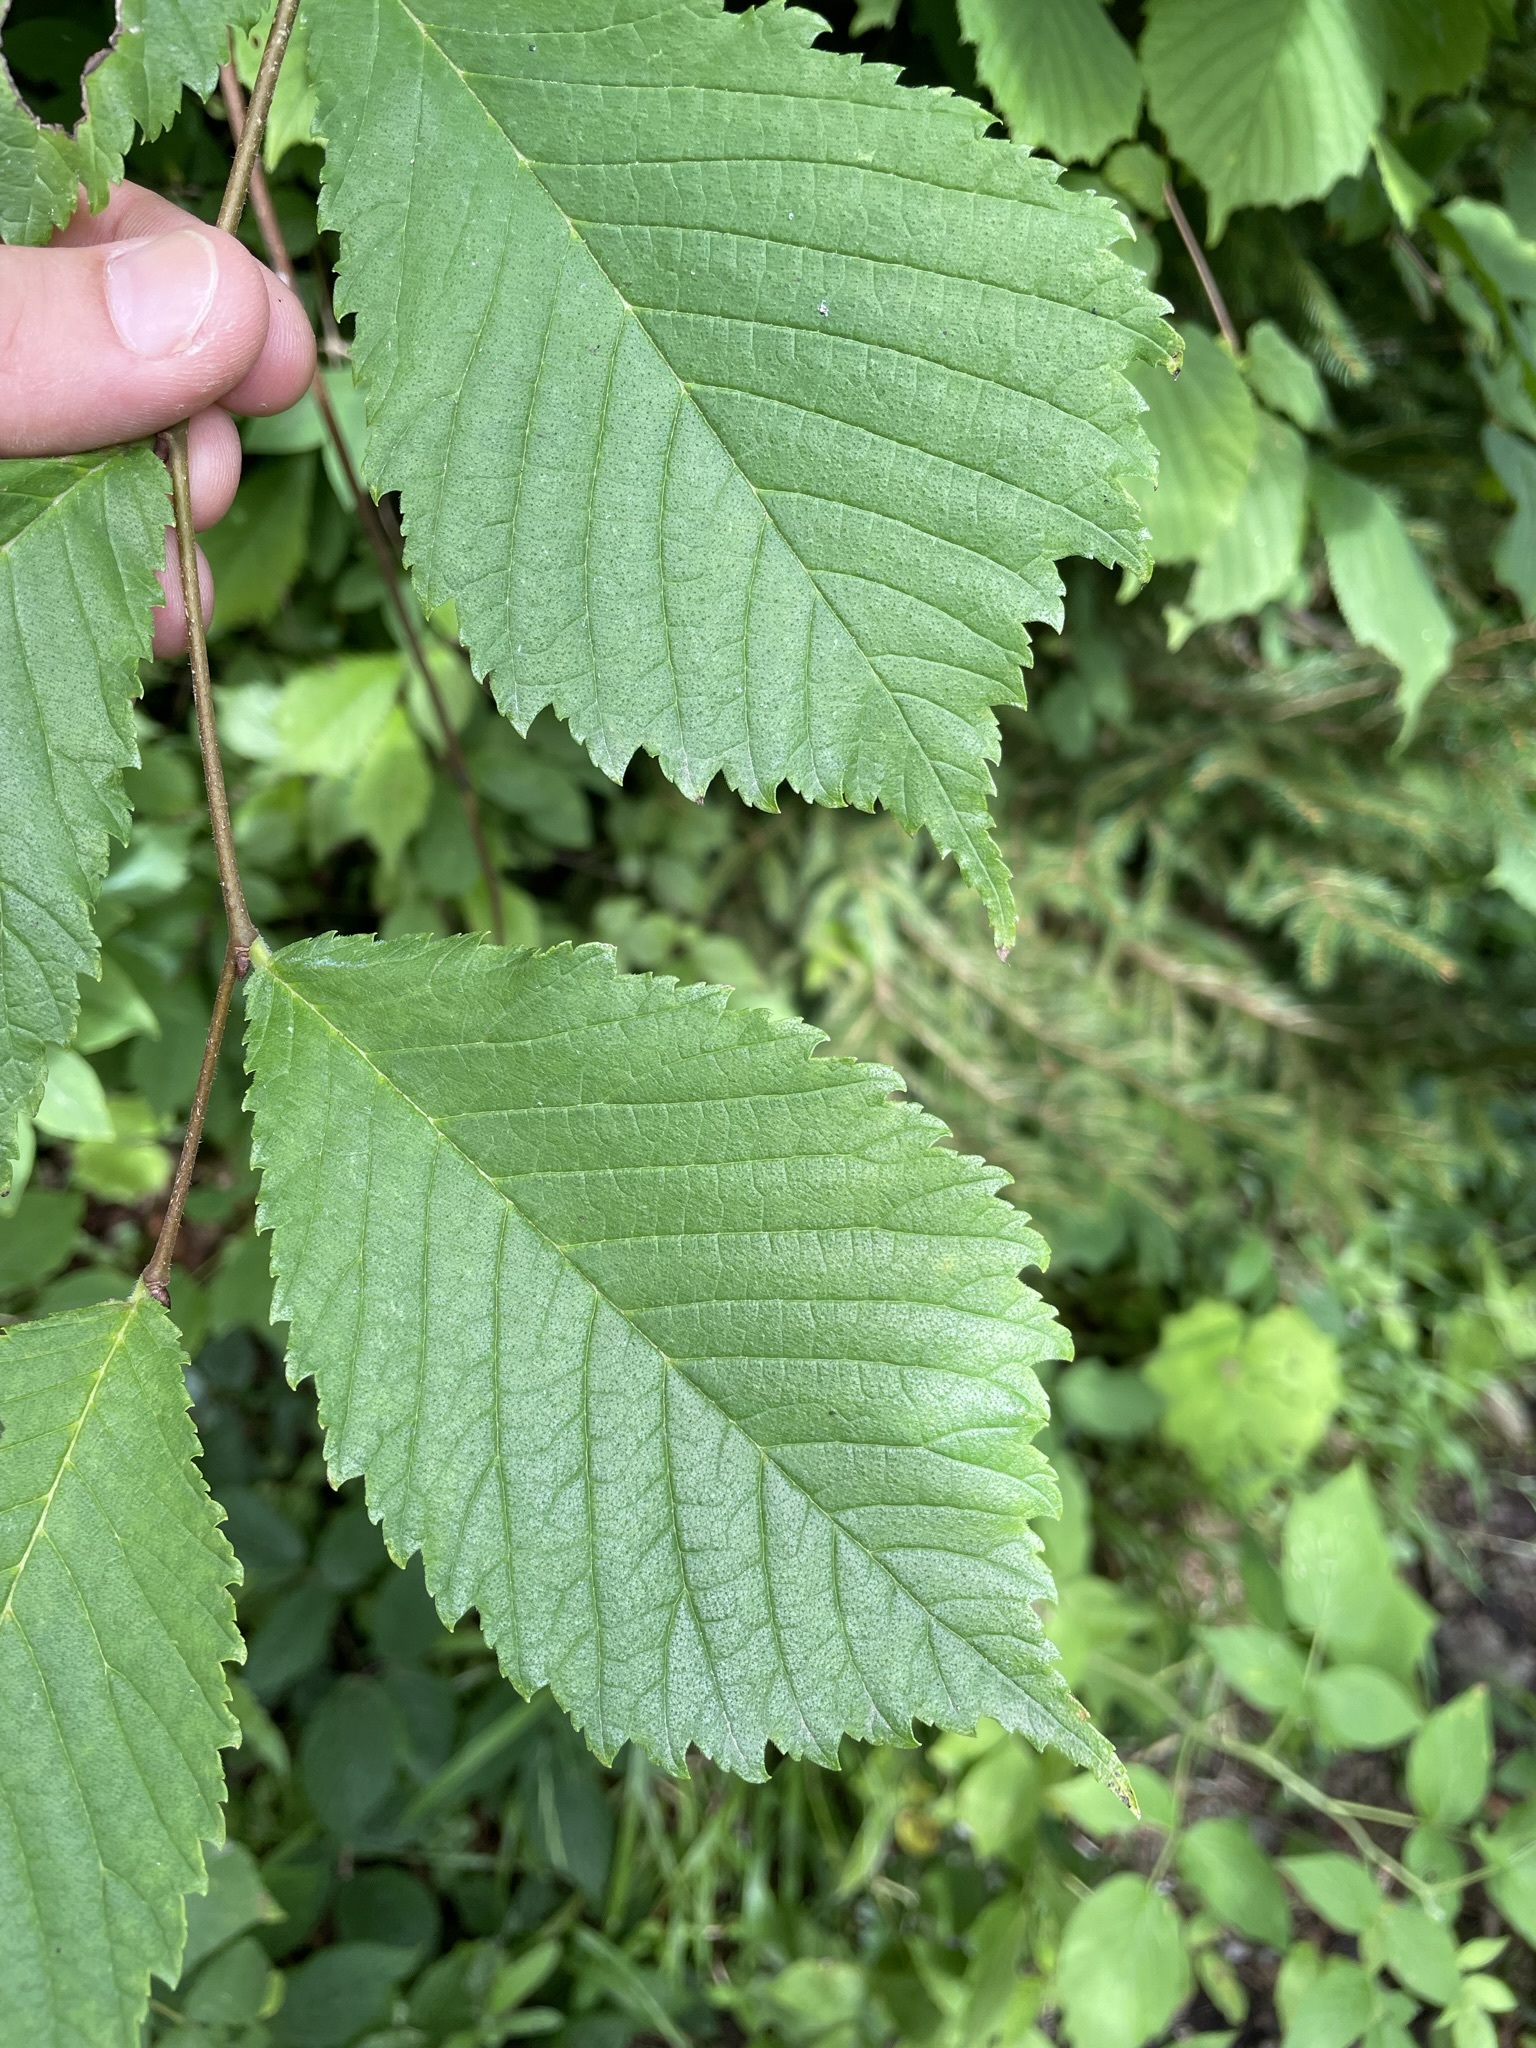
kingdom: Plantae
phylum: Tracheophyta
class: Magnoliopsida
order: Rosales
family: Ulmaceae
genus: Ulmus
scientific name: Ulmus glabra
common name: Wych elm
